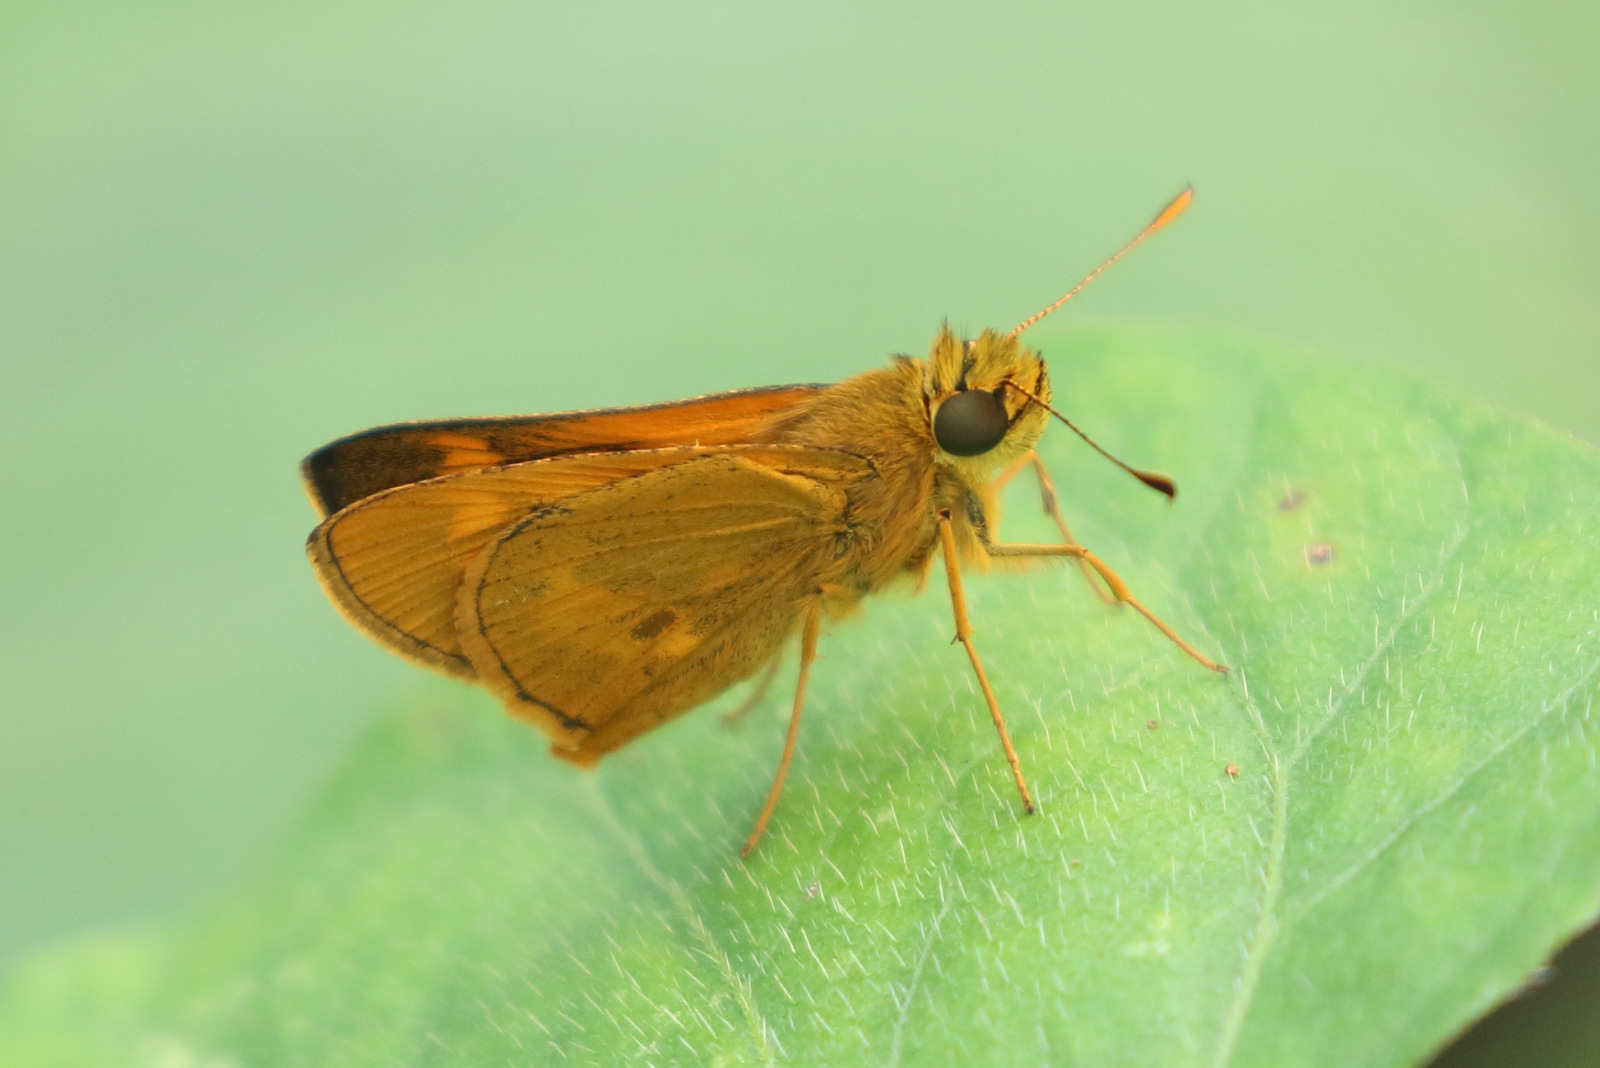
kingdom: Animalia
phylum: Arthropoda
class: Insecta
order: Lepidoptera
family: Hesperiidae
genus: Oriens
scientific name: Oriens augustula
